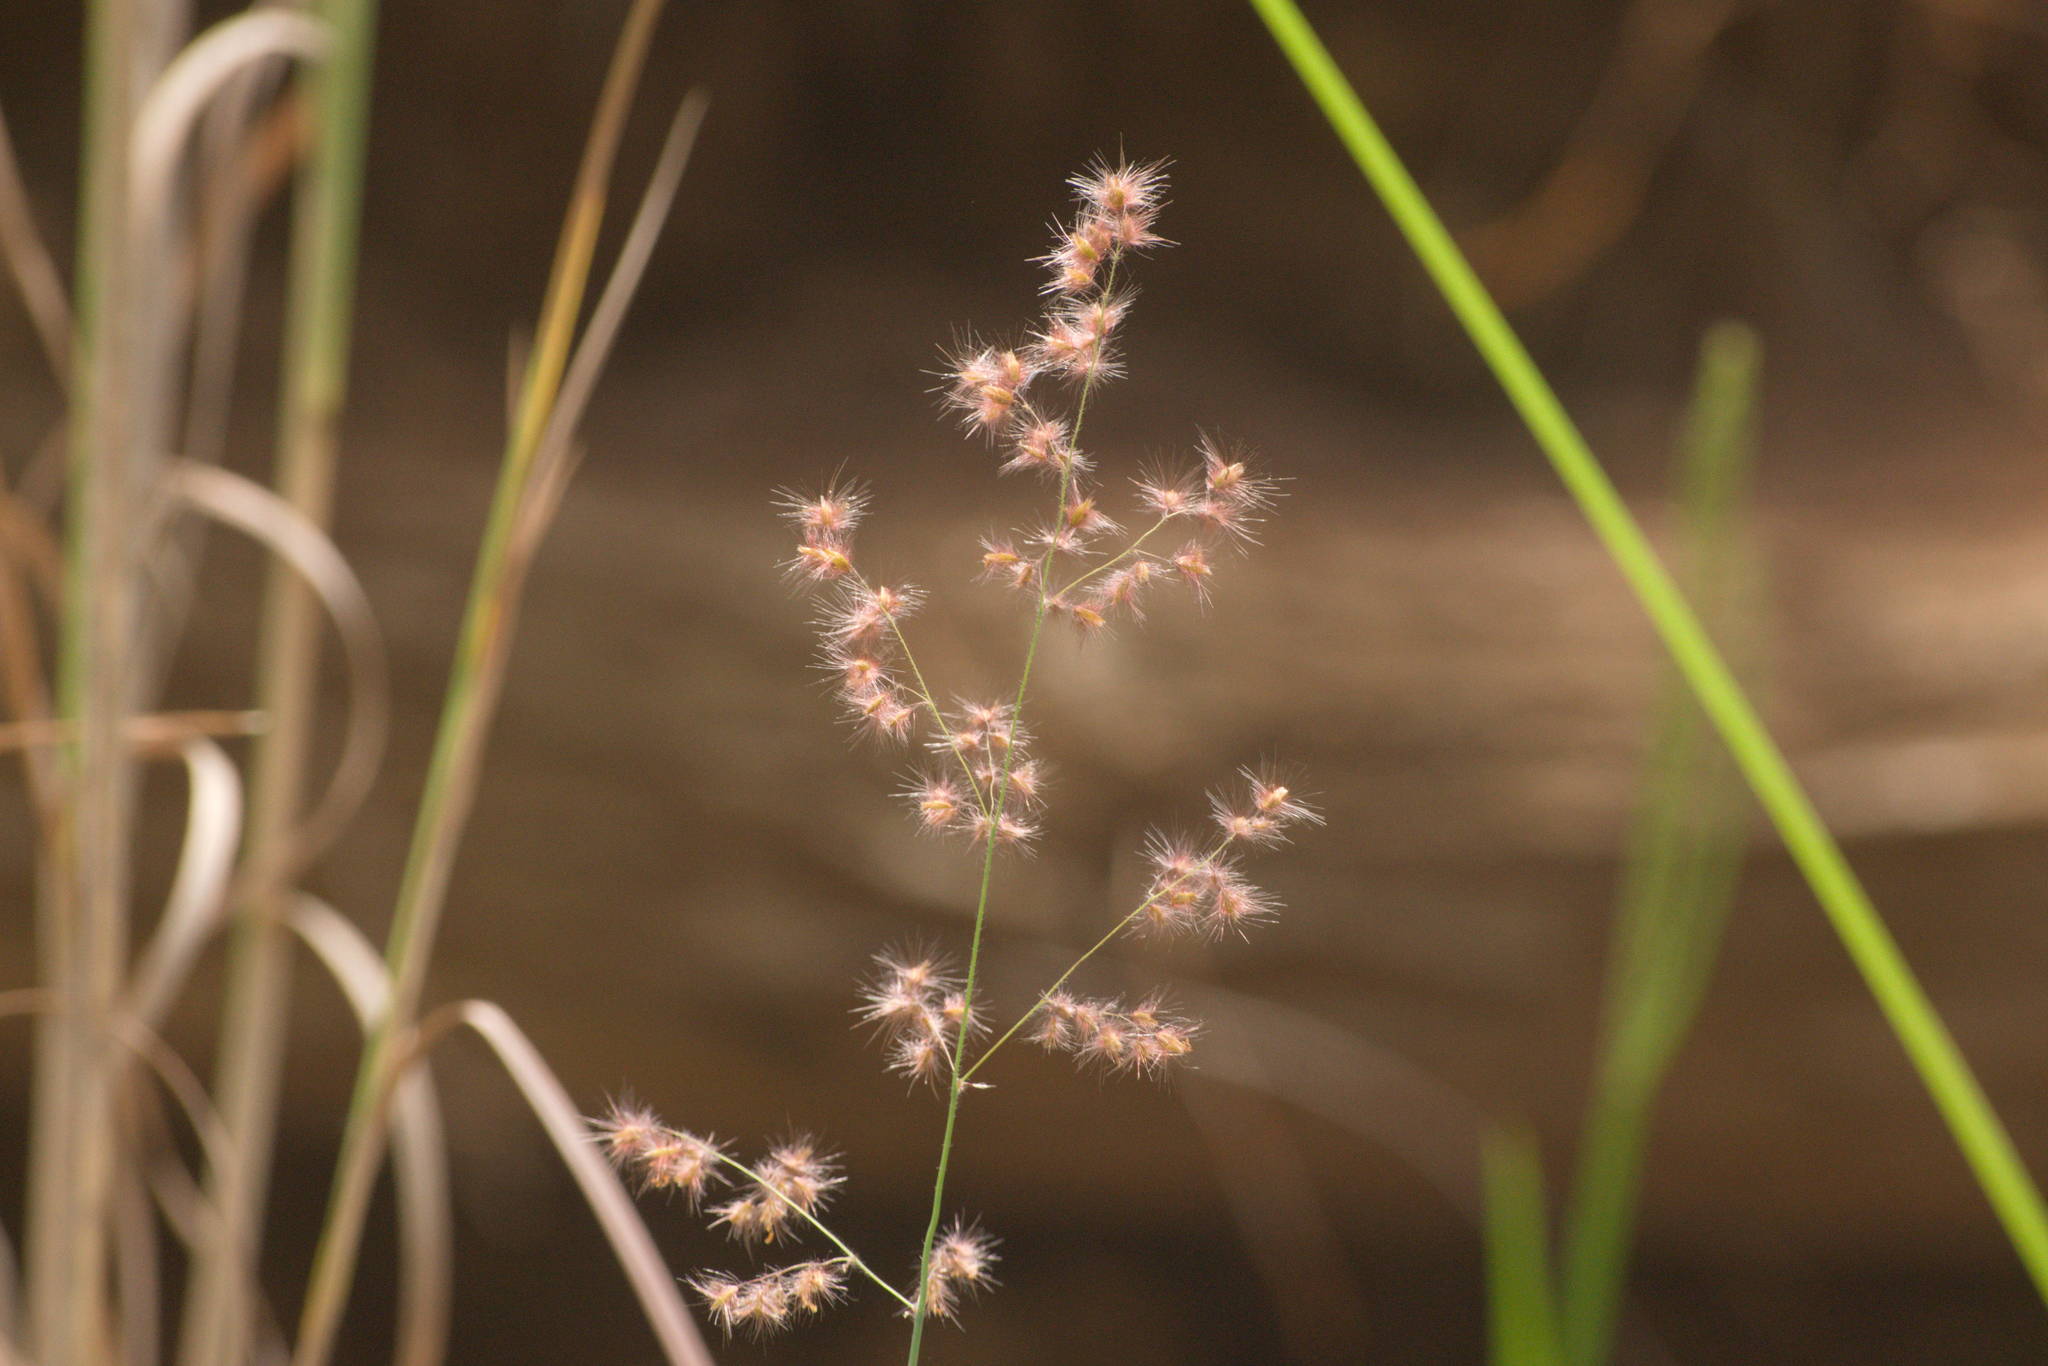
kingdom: Plantae
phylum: Tracheophyta
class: Liliopsida
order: Poales
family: Poaceae
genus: Melinis
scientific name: Melinis repens
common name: Rose natal grass
